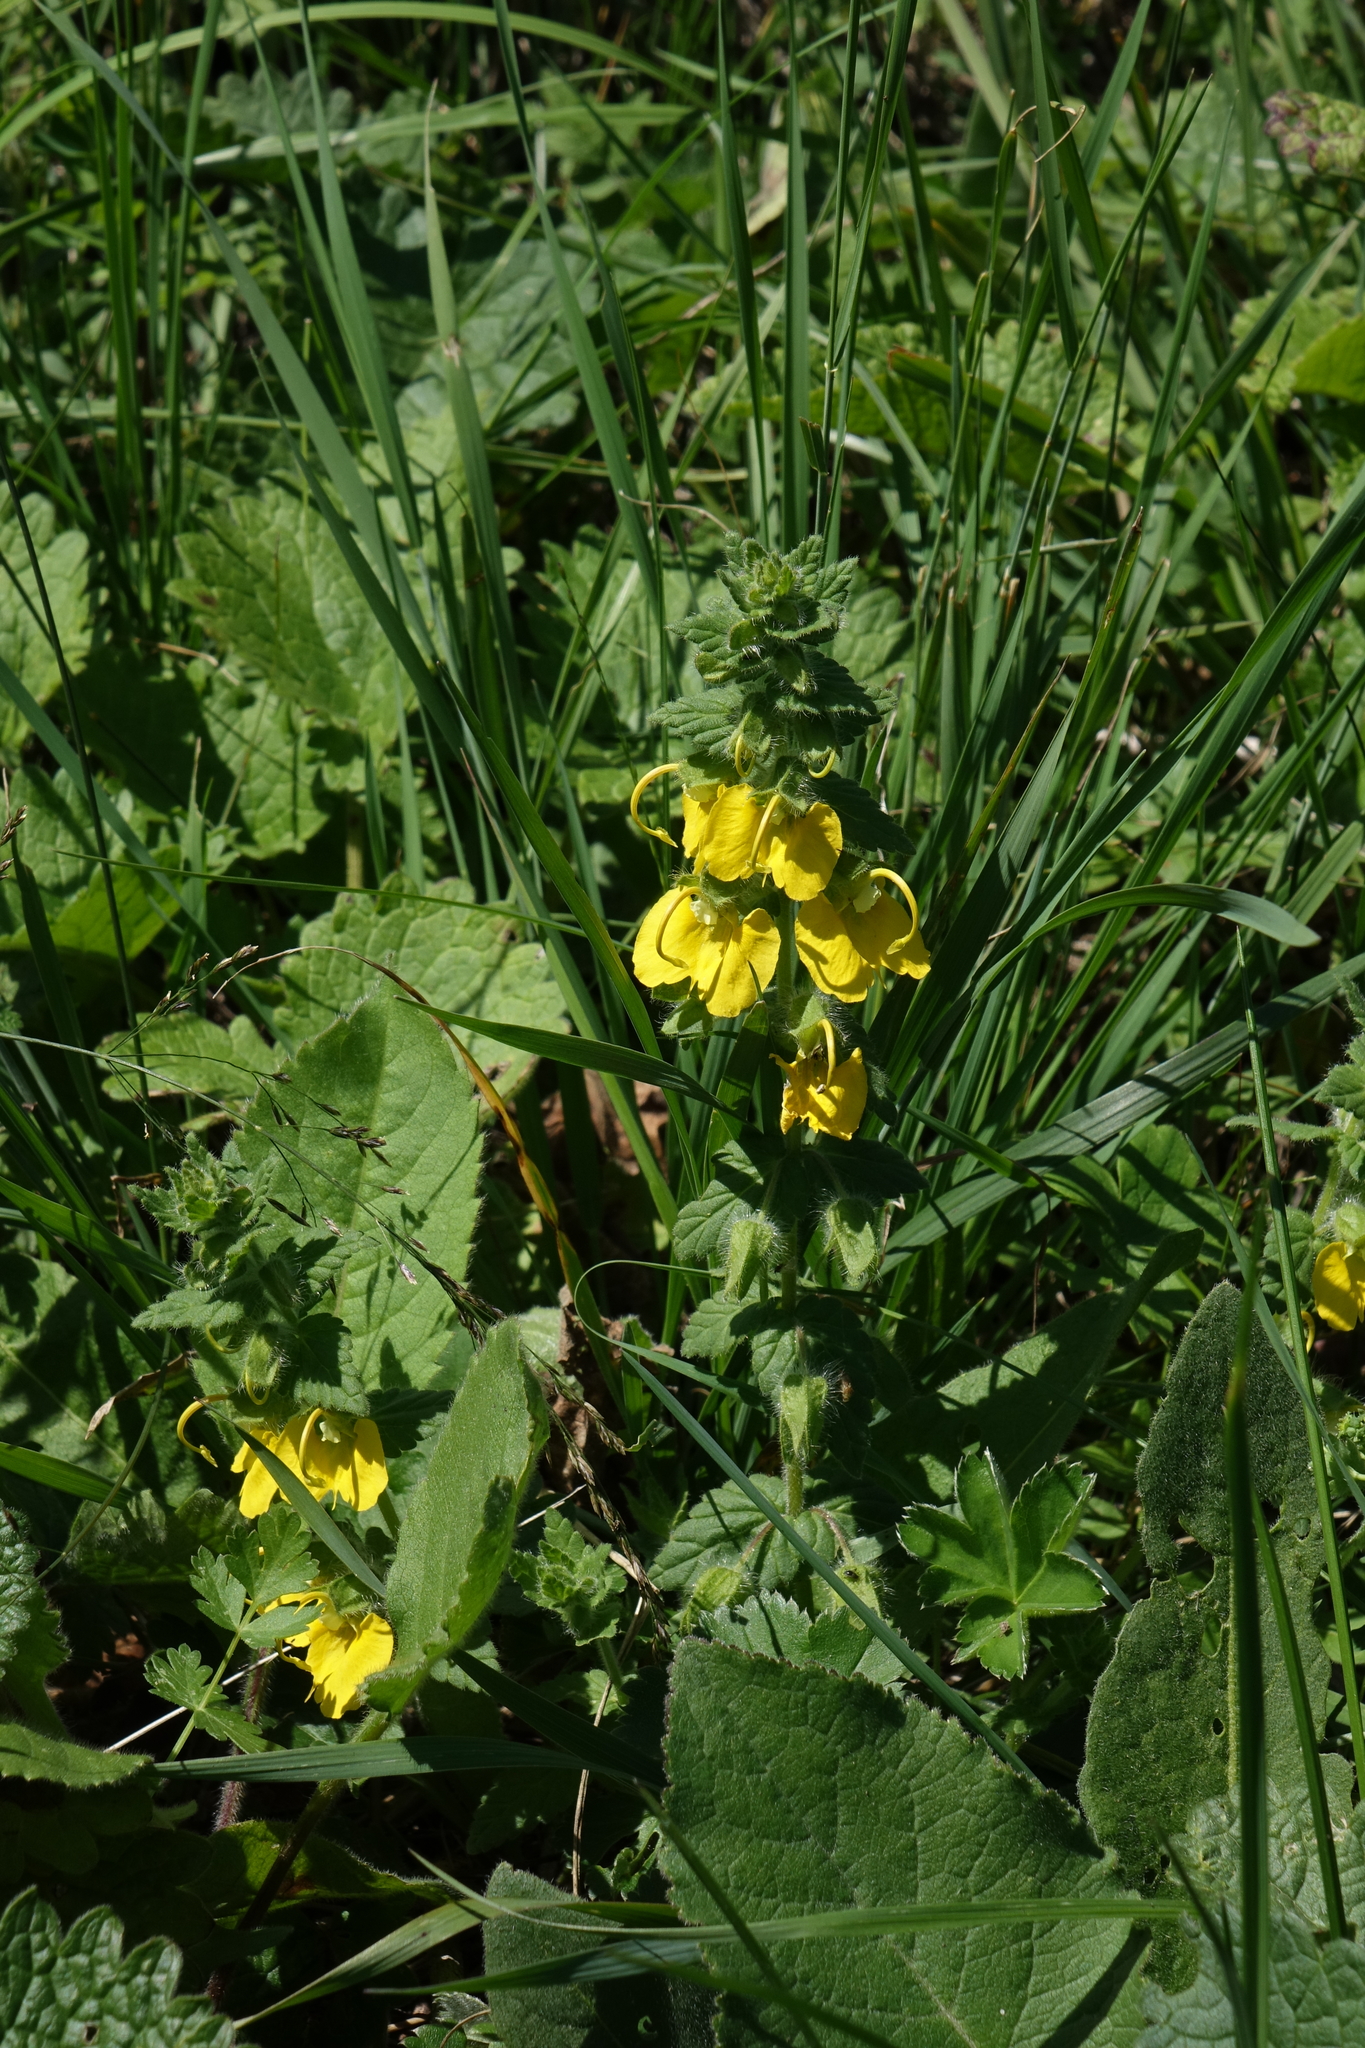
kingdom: Plantae
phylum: Tracheophyta
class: Magnoliopsida
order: Lamiales
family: Orobanchaceae
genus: Rhynchocorys
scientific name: Rhynchocorys orientalis
